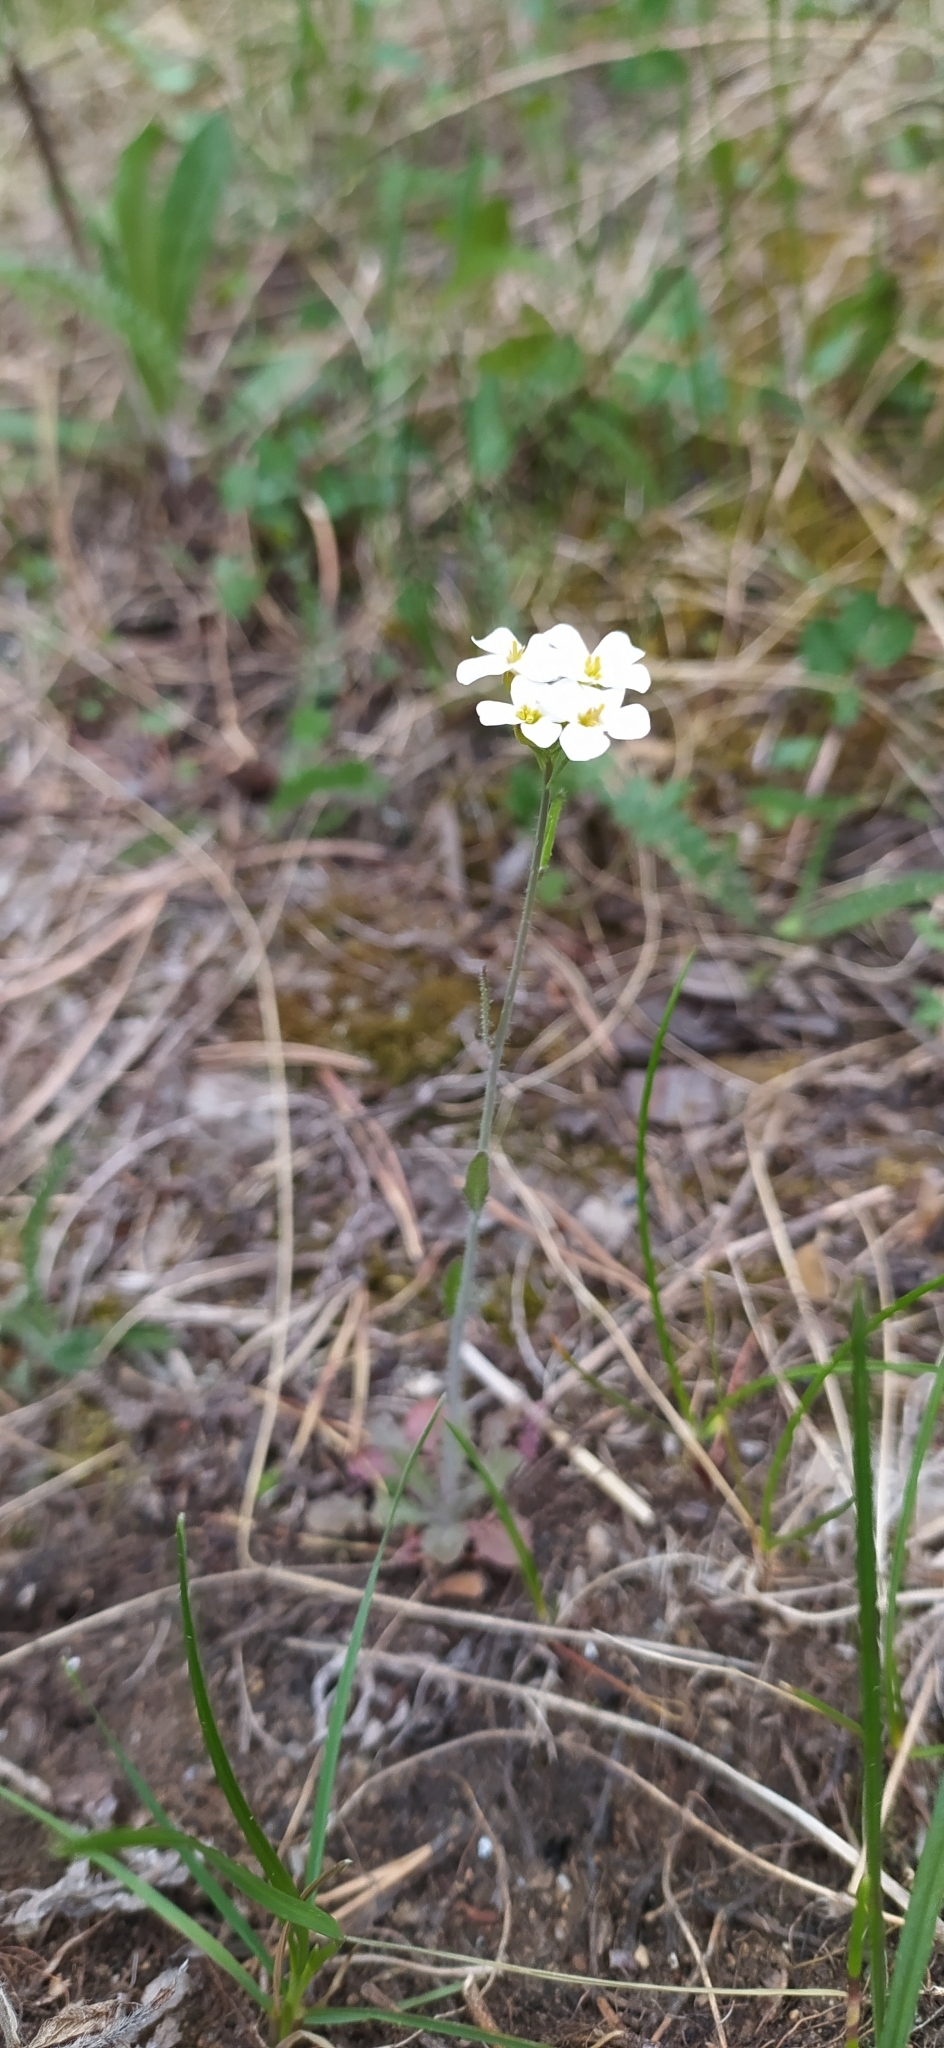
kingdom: Plantae
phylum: Tracheophyta
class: Magnoliopsida
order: Brassicales
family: Brassicaceae
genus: Arabidopsis
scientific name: Arabidopsis arenosa
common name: Sand rock-cress
